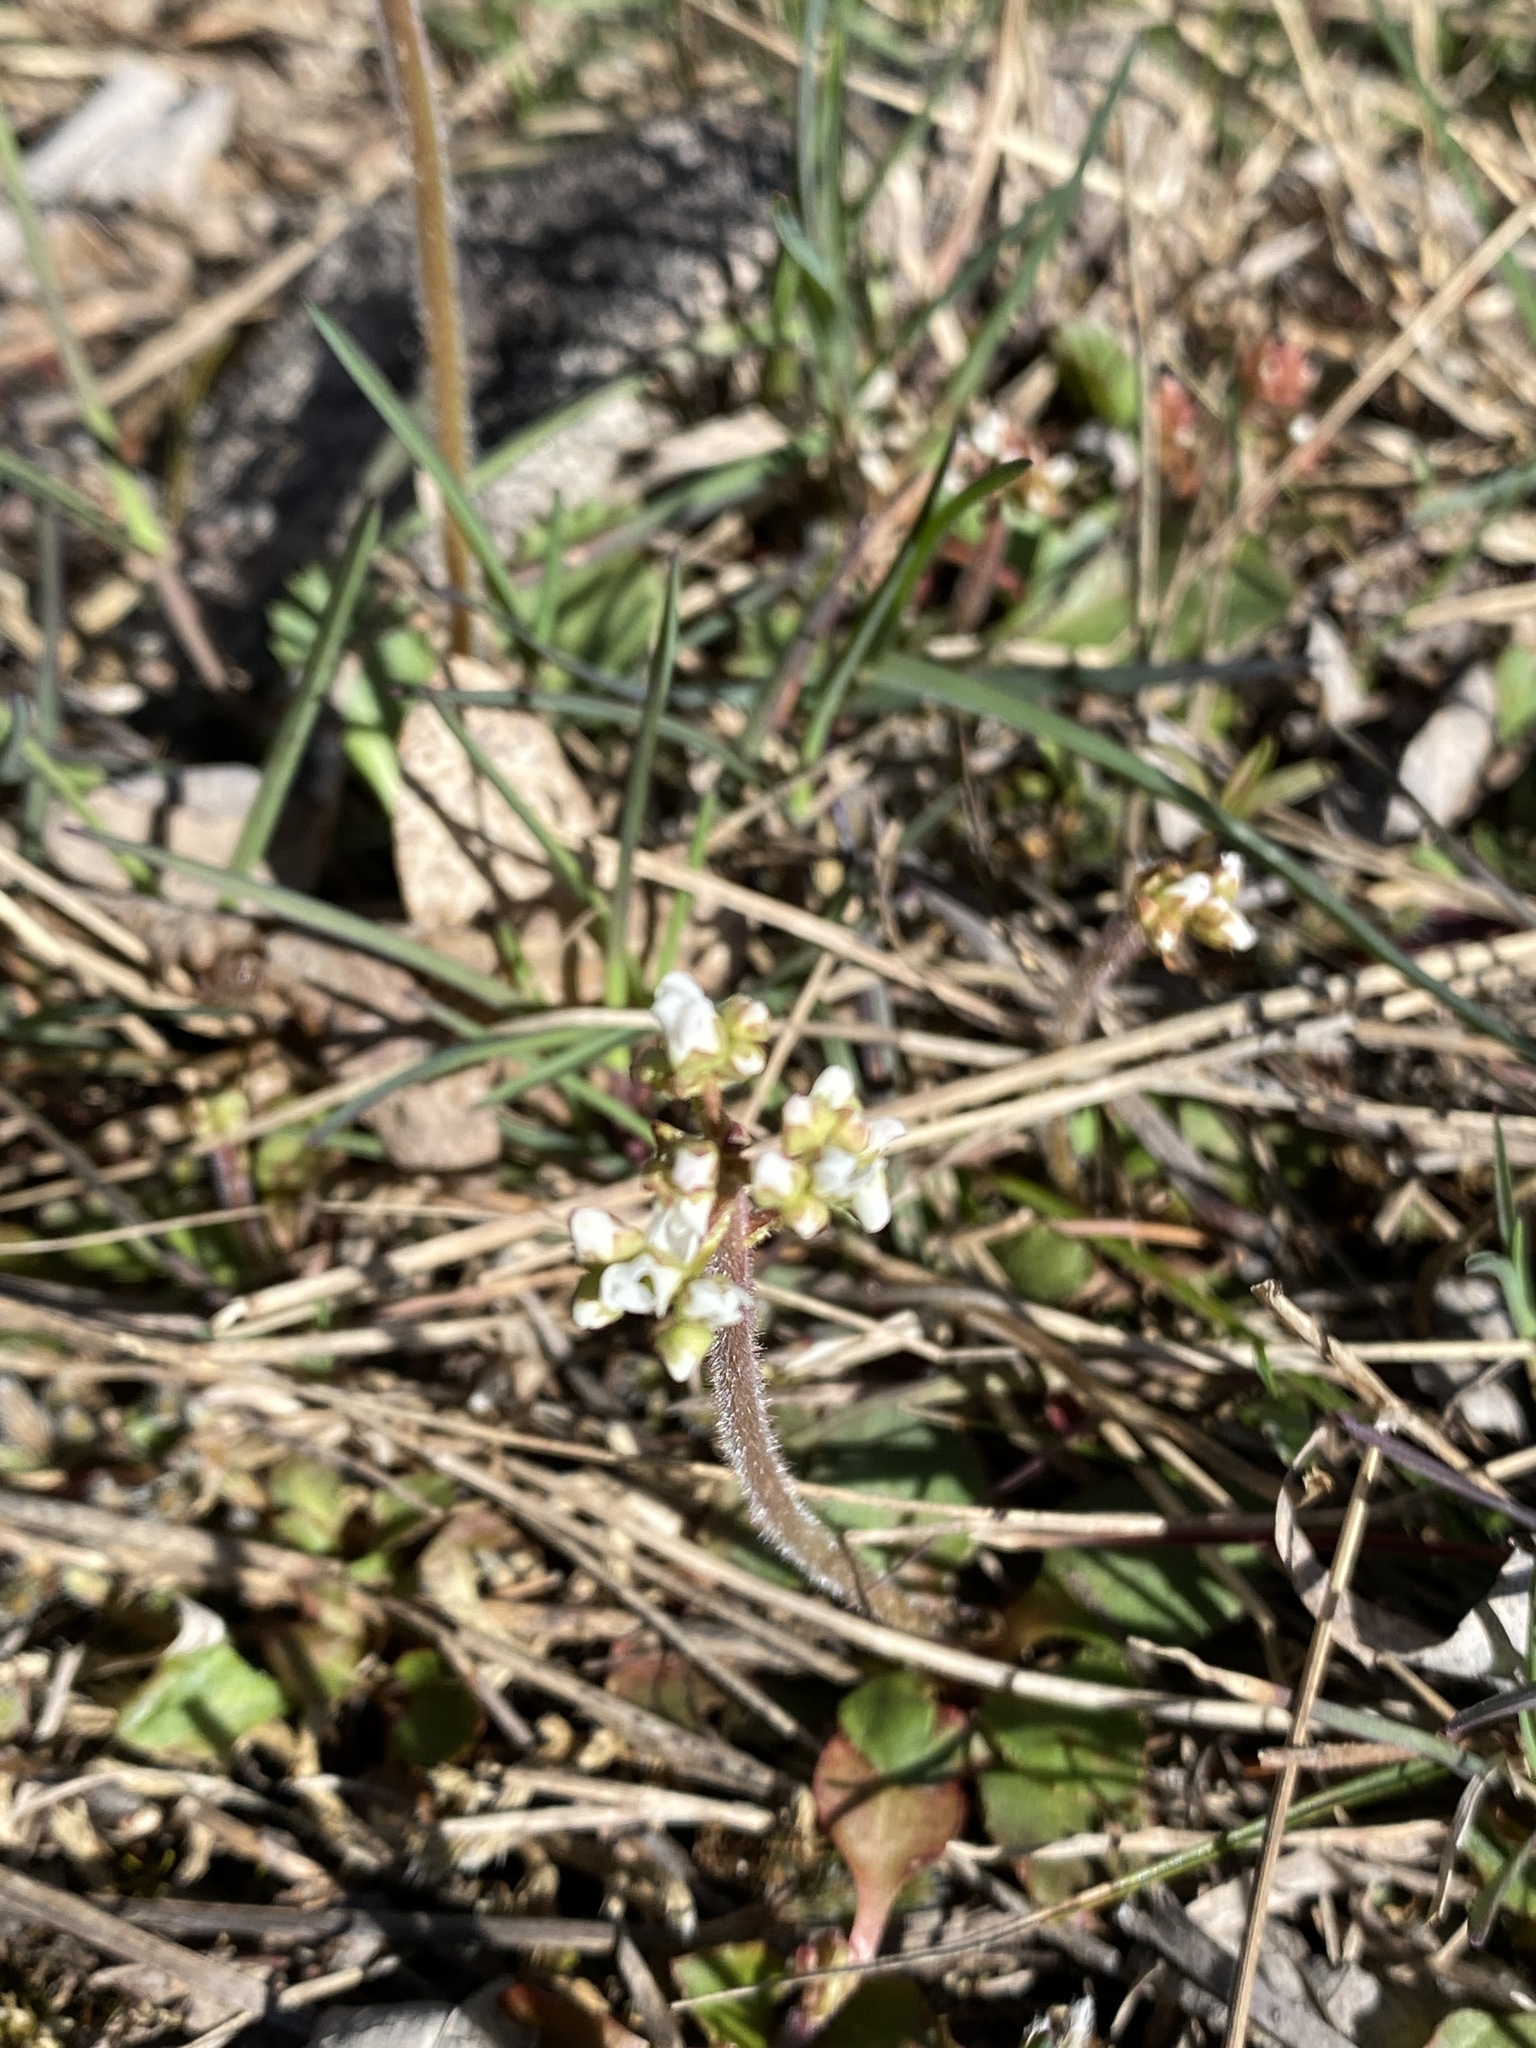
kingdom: Plantae
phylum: Tracheophyta
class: Magnoliopsida
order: Saxifragales
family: Saxifragaceae
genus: Micranthes
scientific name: Micranthes virginiensis
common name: Early saxifrage
